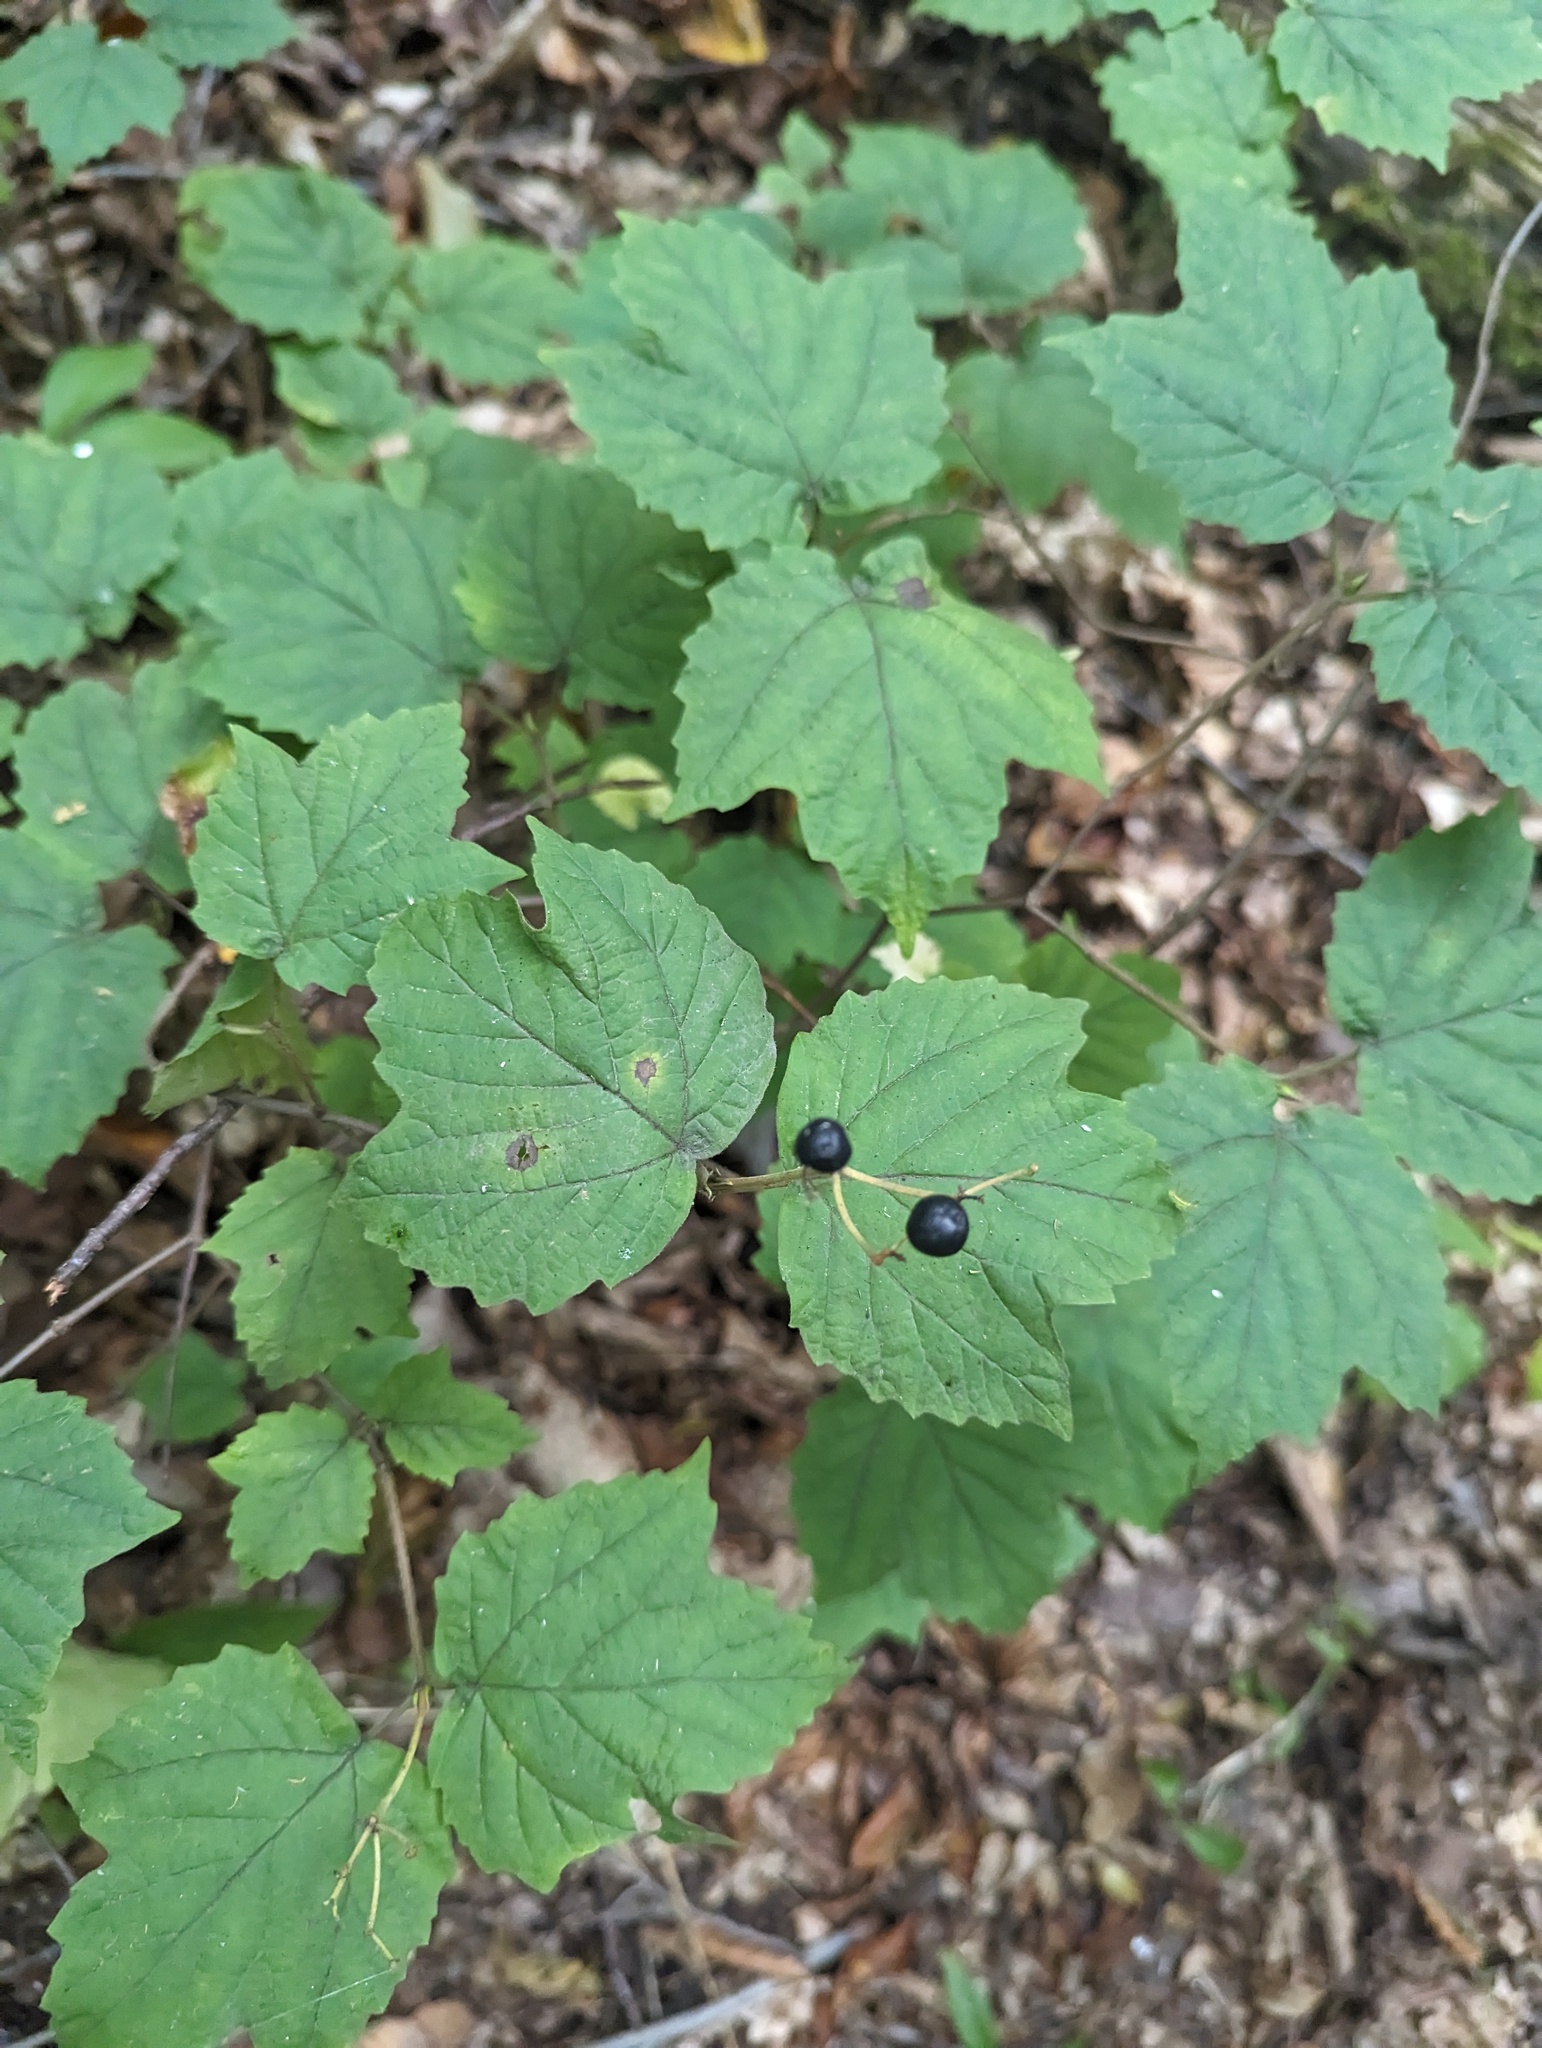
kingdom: Plantae
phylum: Tracheophyta
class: Magnoliopsida
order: Dipsacales
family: Viburnaceae
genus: Viburnum
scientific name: Viburnum acerifolium
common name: Dockmackie
